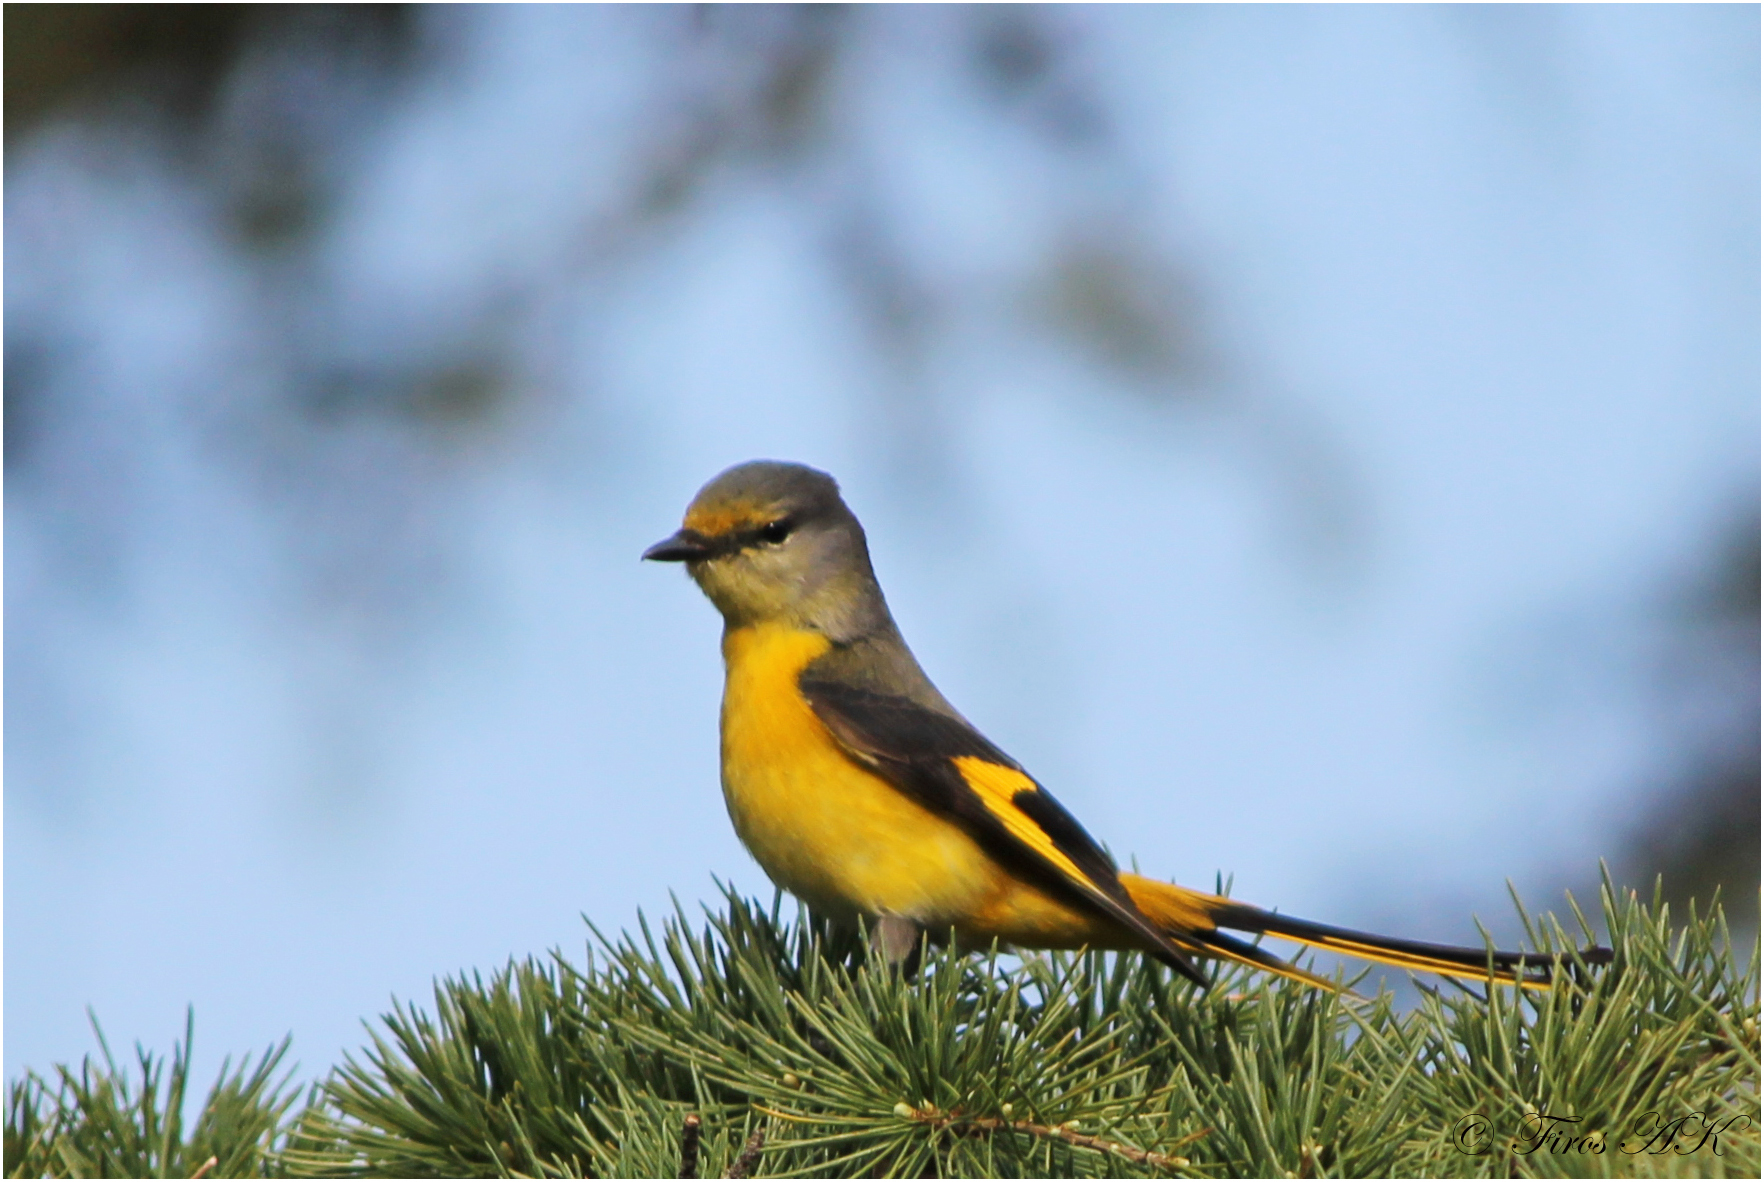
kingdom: Animalia
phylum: Chordata
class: Aves
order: Passeriformes
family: Campephagidae
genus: Pericrocotus
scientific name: Pericrocotus brevirostris
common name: Short-billed minivet
